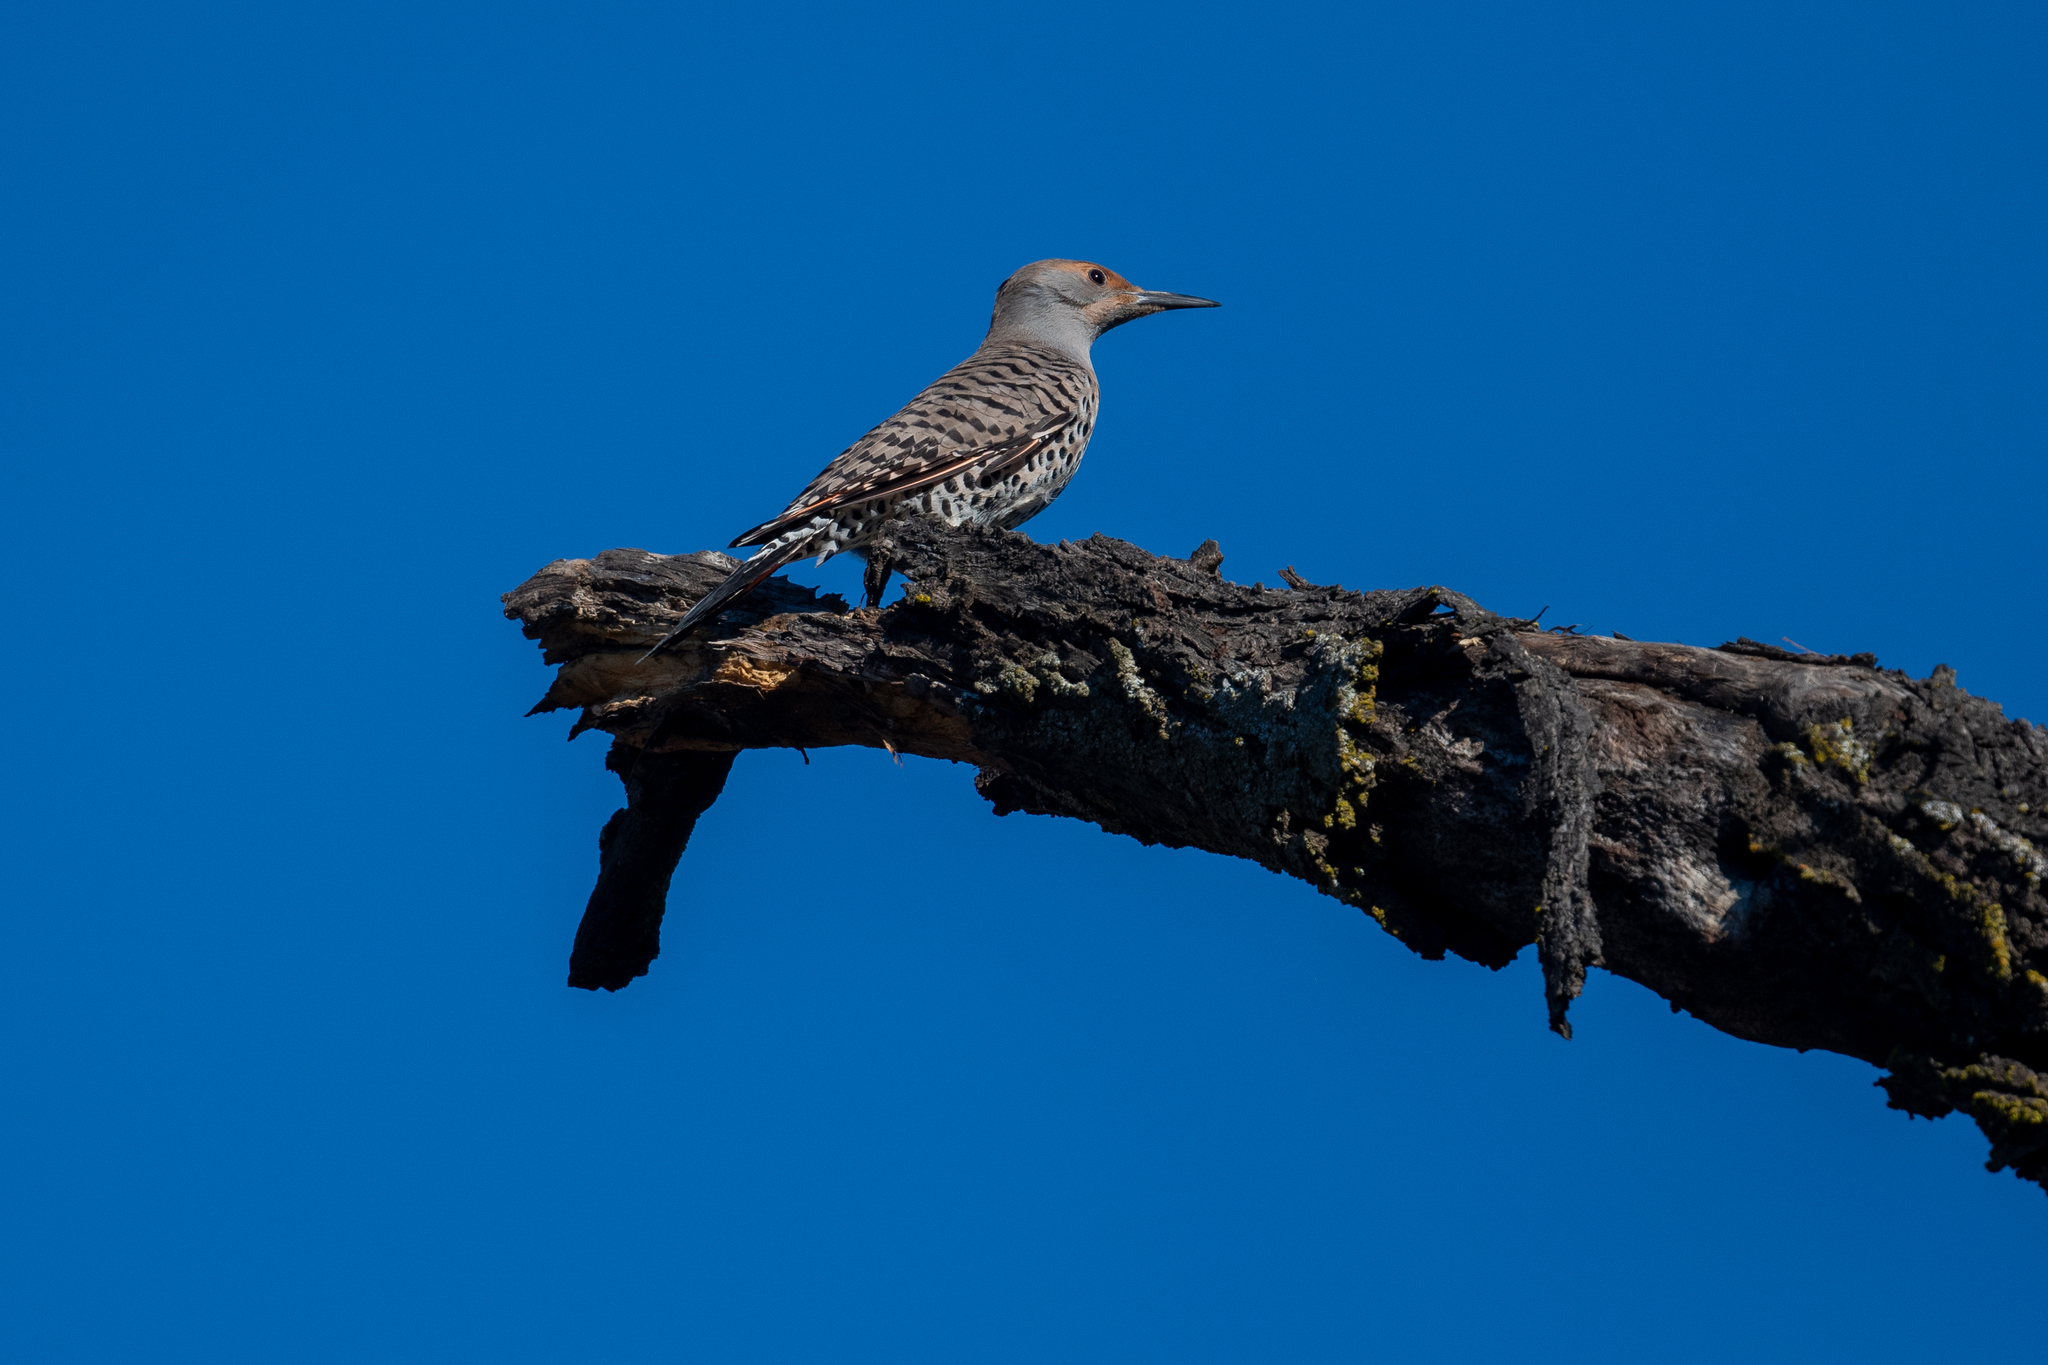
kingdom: Animalia
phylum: Chordata
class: Aves
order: Piciformes
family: Picidae
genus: Colaptes
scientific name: Colaptes auratus
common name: Northern flicker
